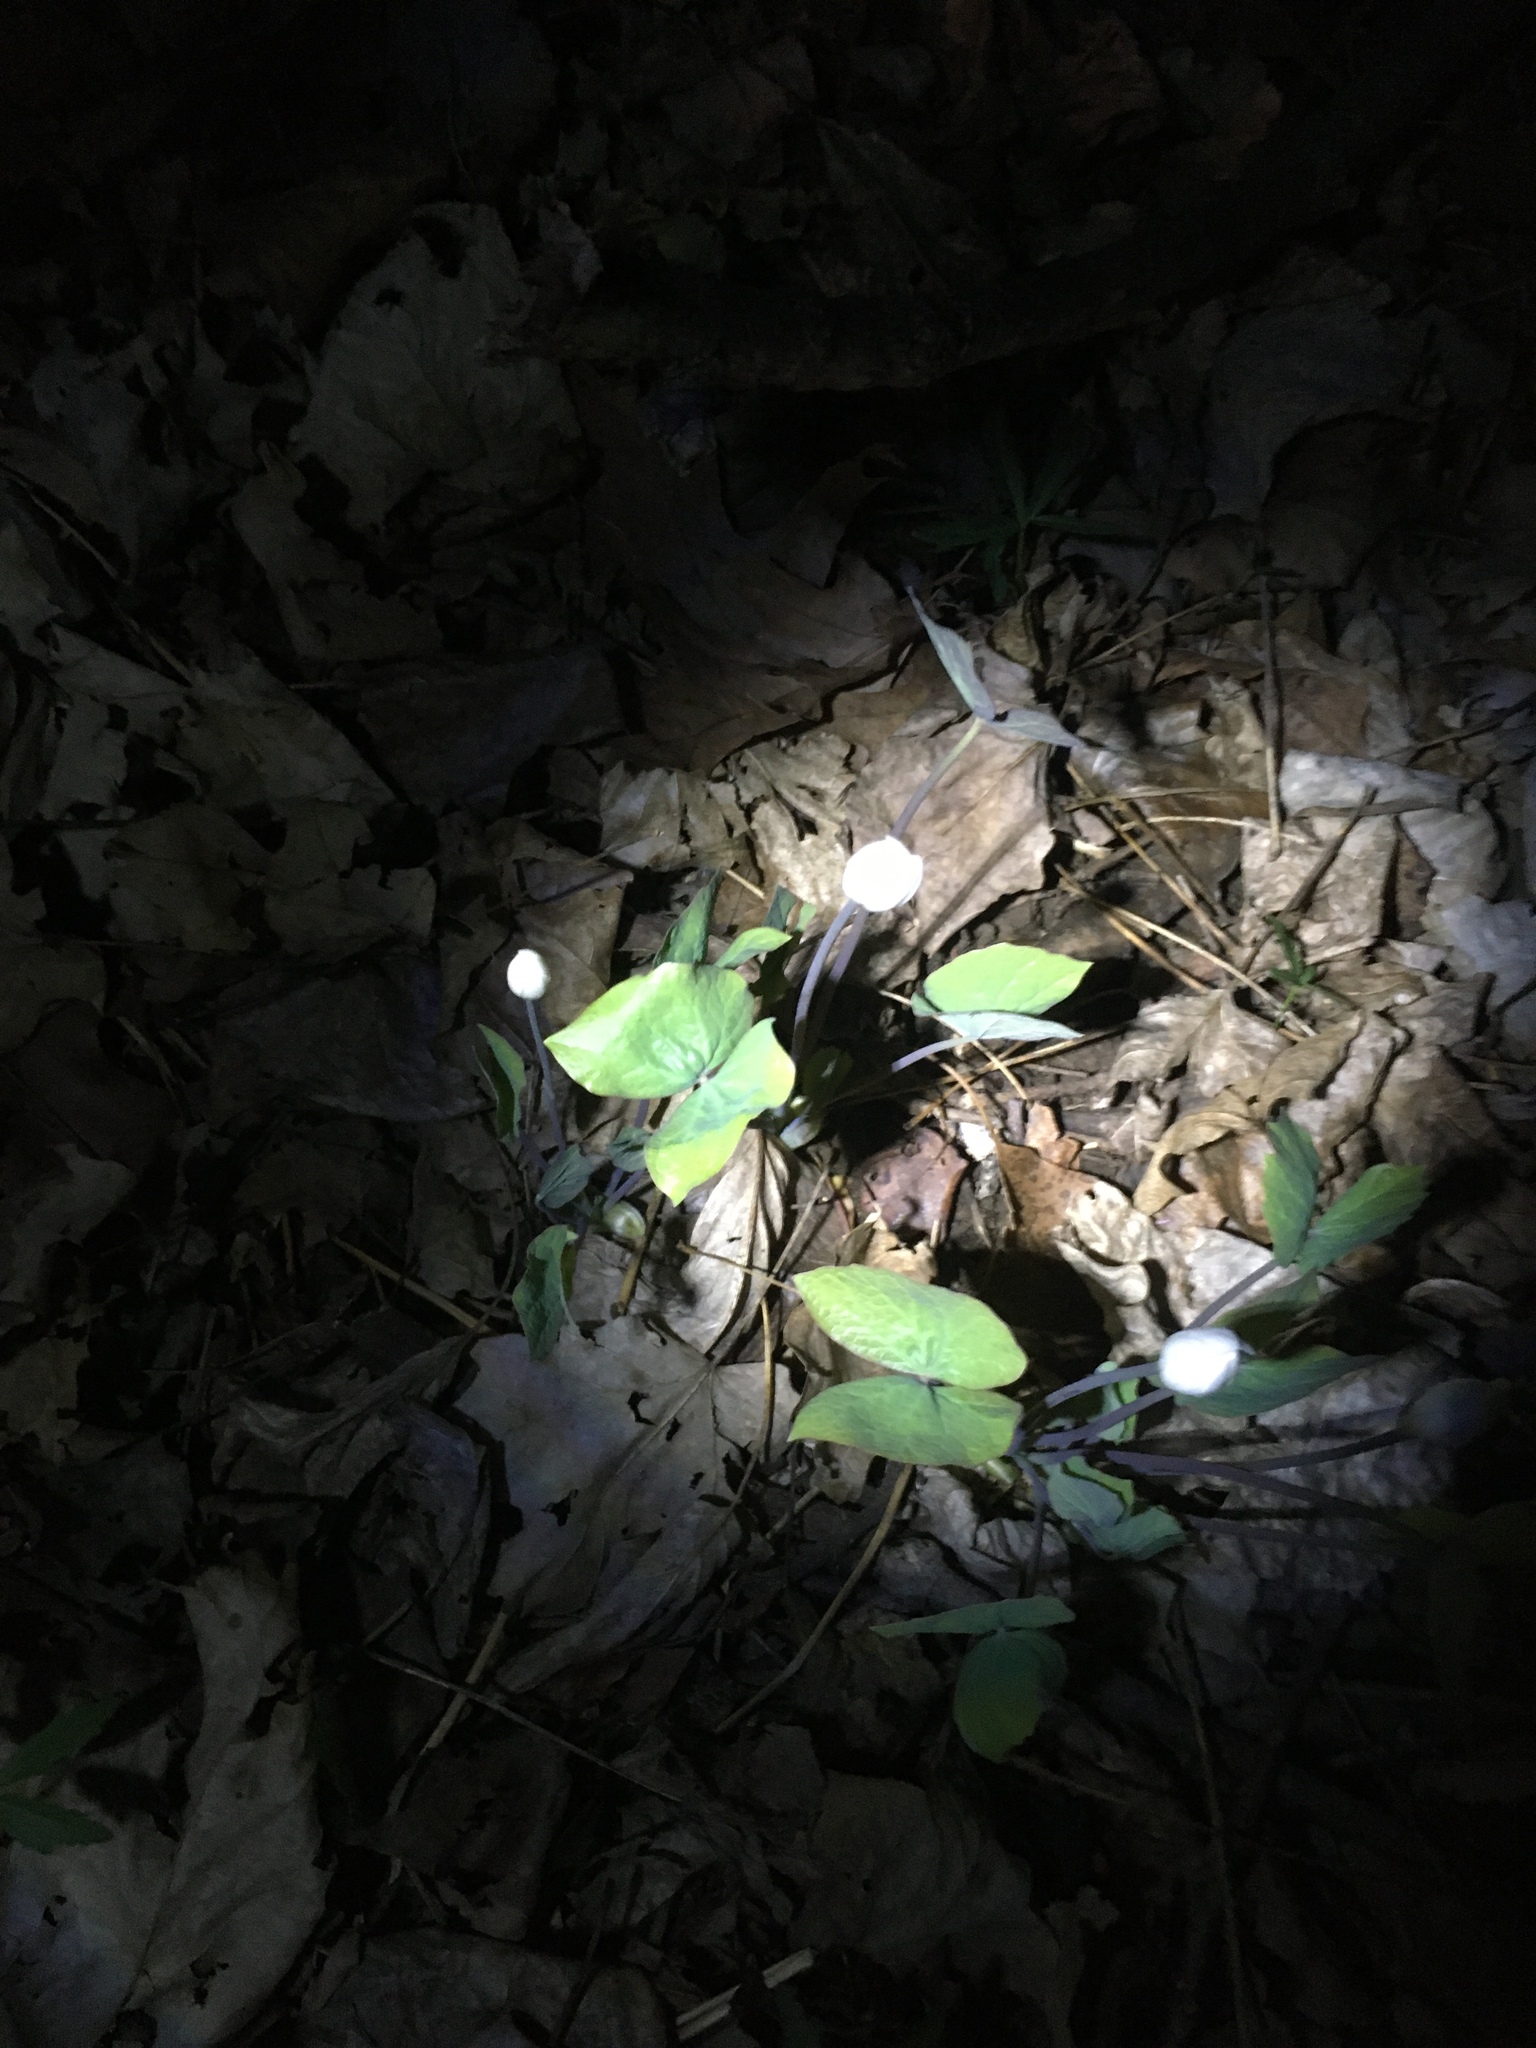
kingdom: Plantae
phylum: Tracheophyta
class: Magnoliopsida
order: Ranunculales
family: Berberidaceae
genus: Jeffersonia
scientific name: Jeffersonia diphylla
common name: Rheumatism-root
